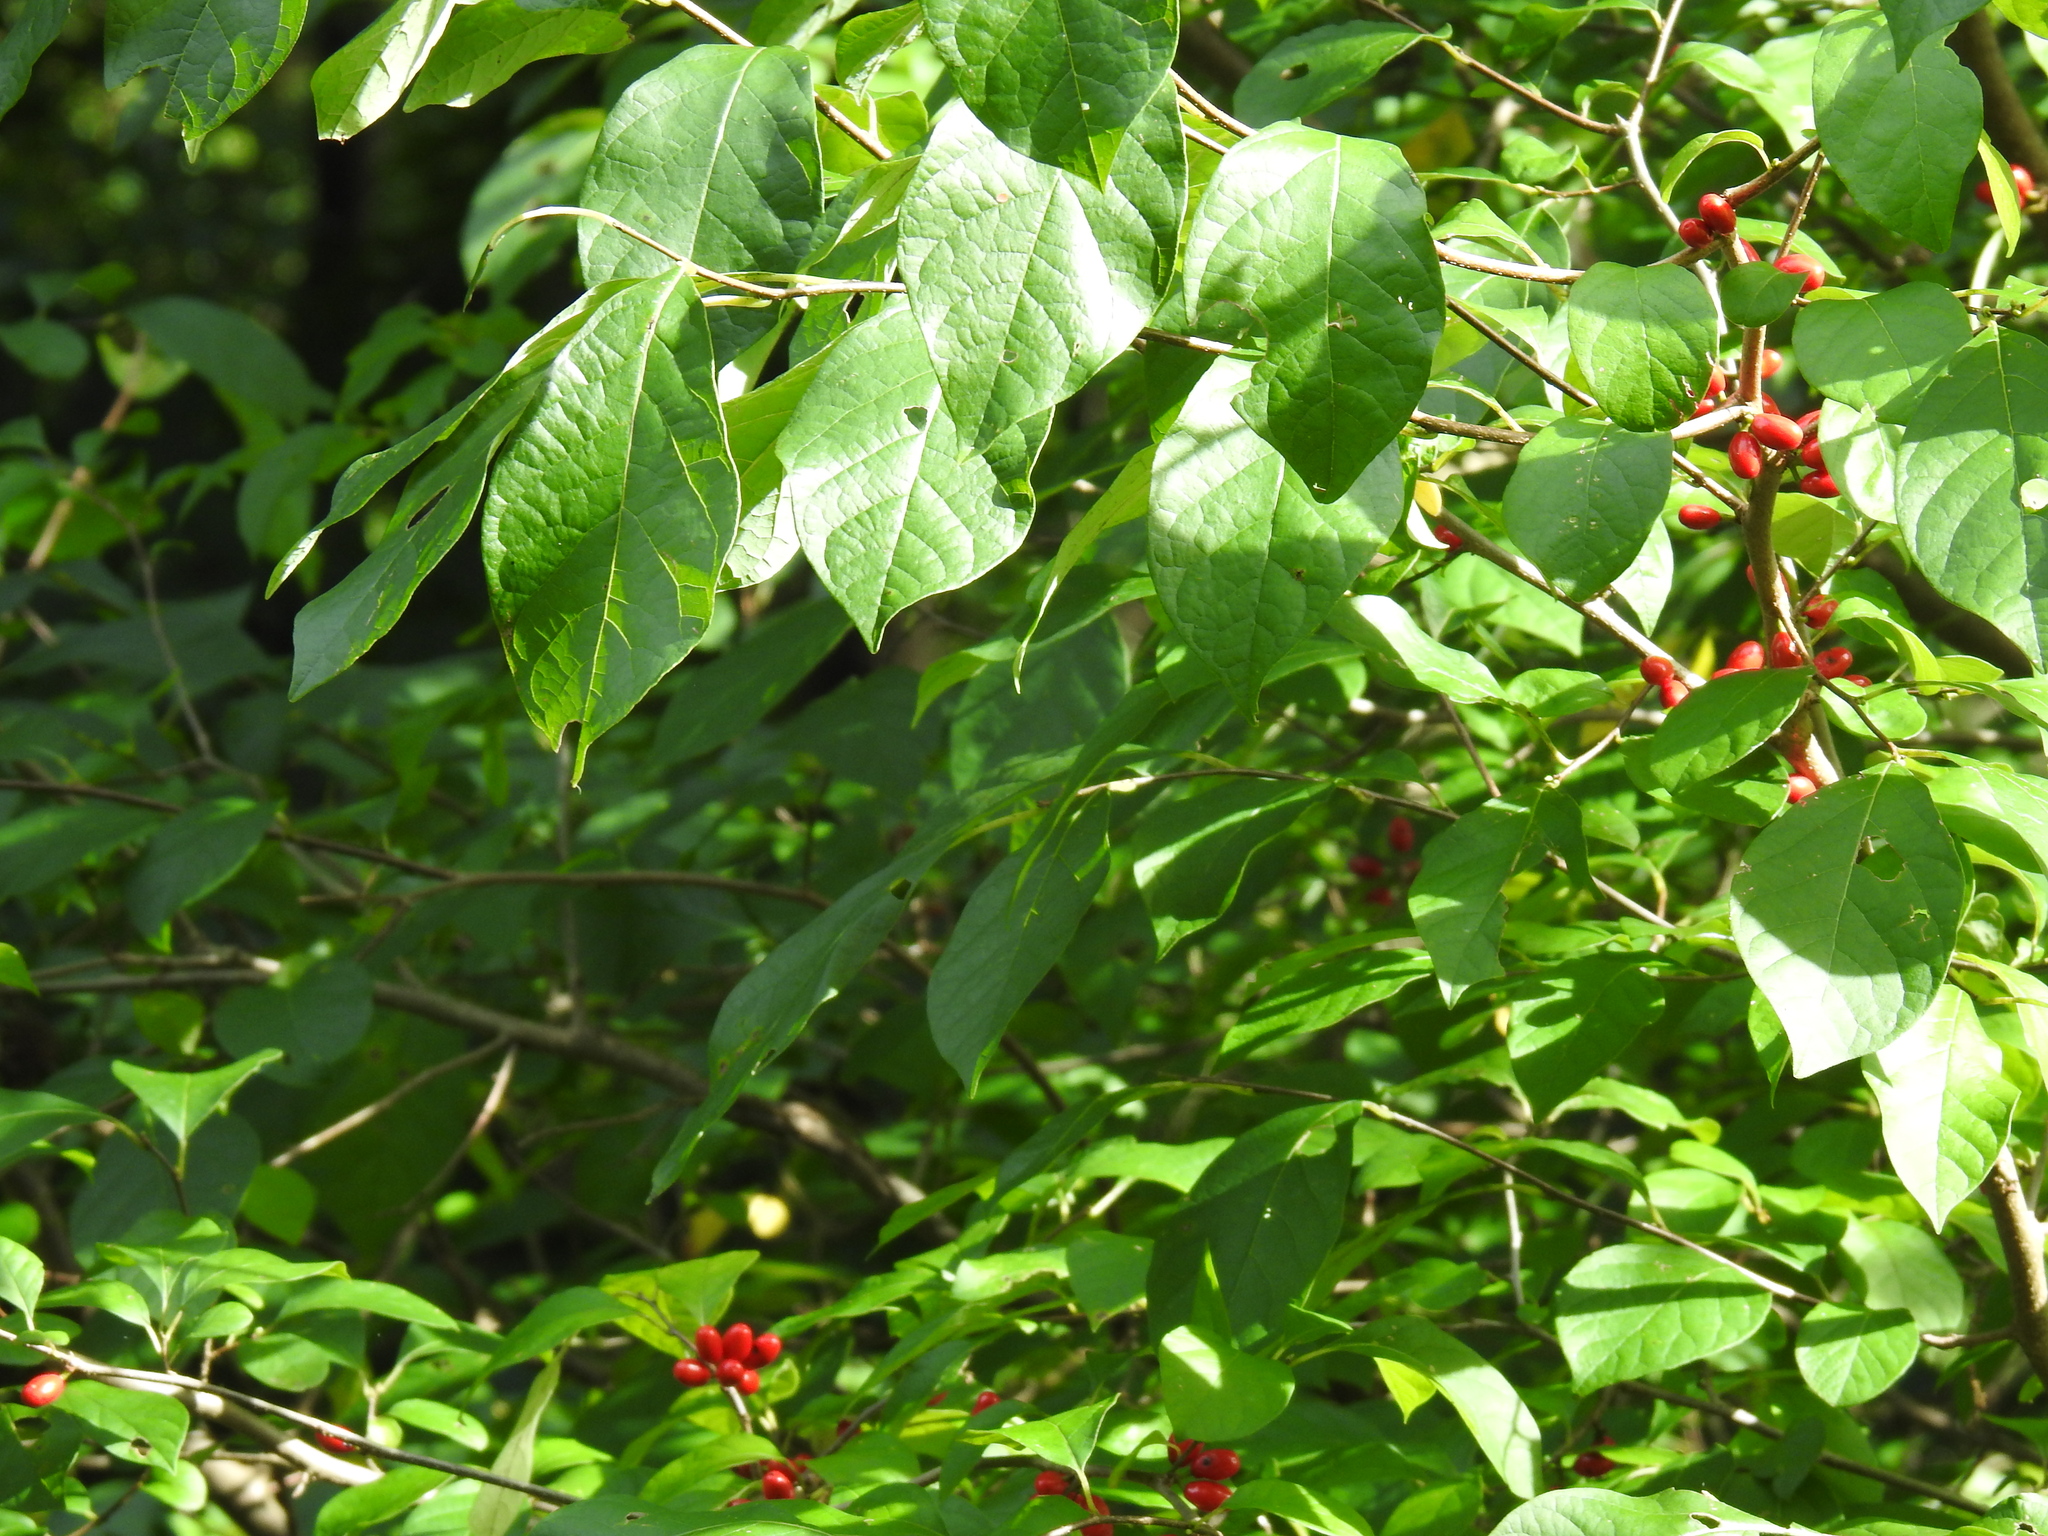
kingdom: Plantae
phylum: Tracheophyta
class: Magnoliopsida
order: Laurales
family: Lauraceae
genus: Lindera
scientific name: Lindera benzoin
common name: Spicebush
